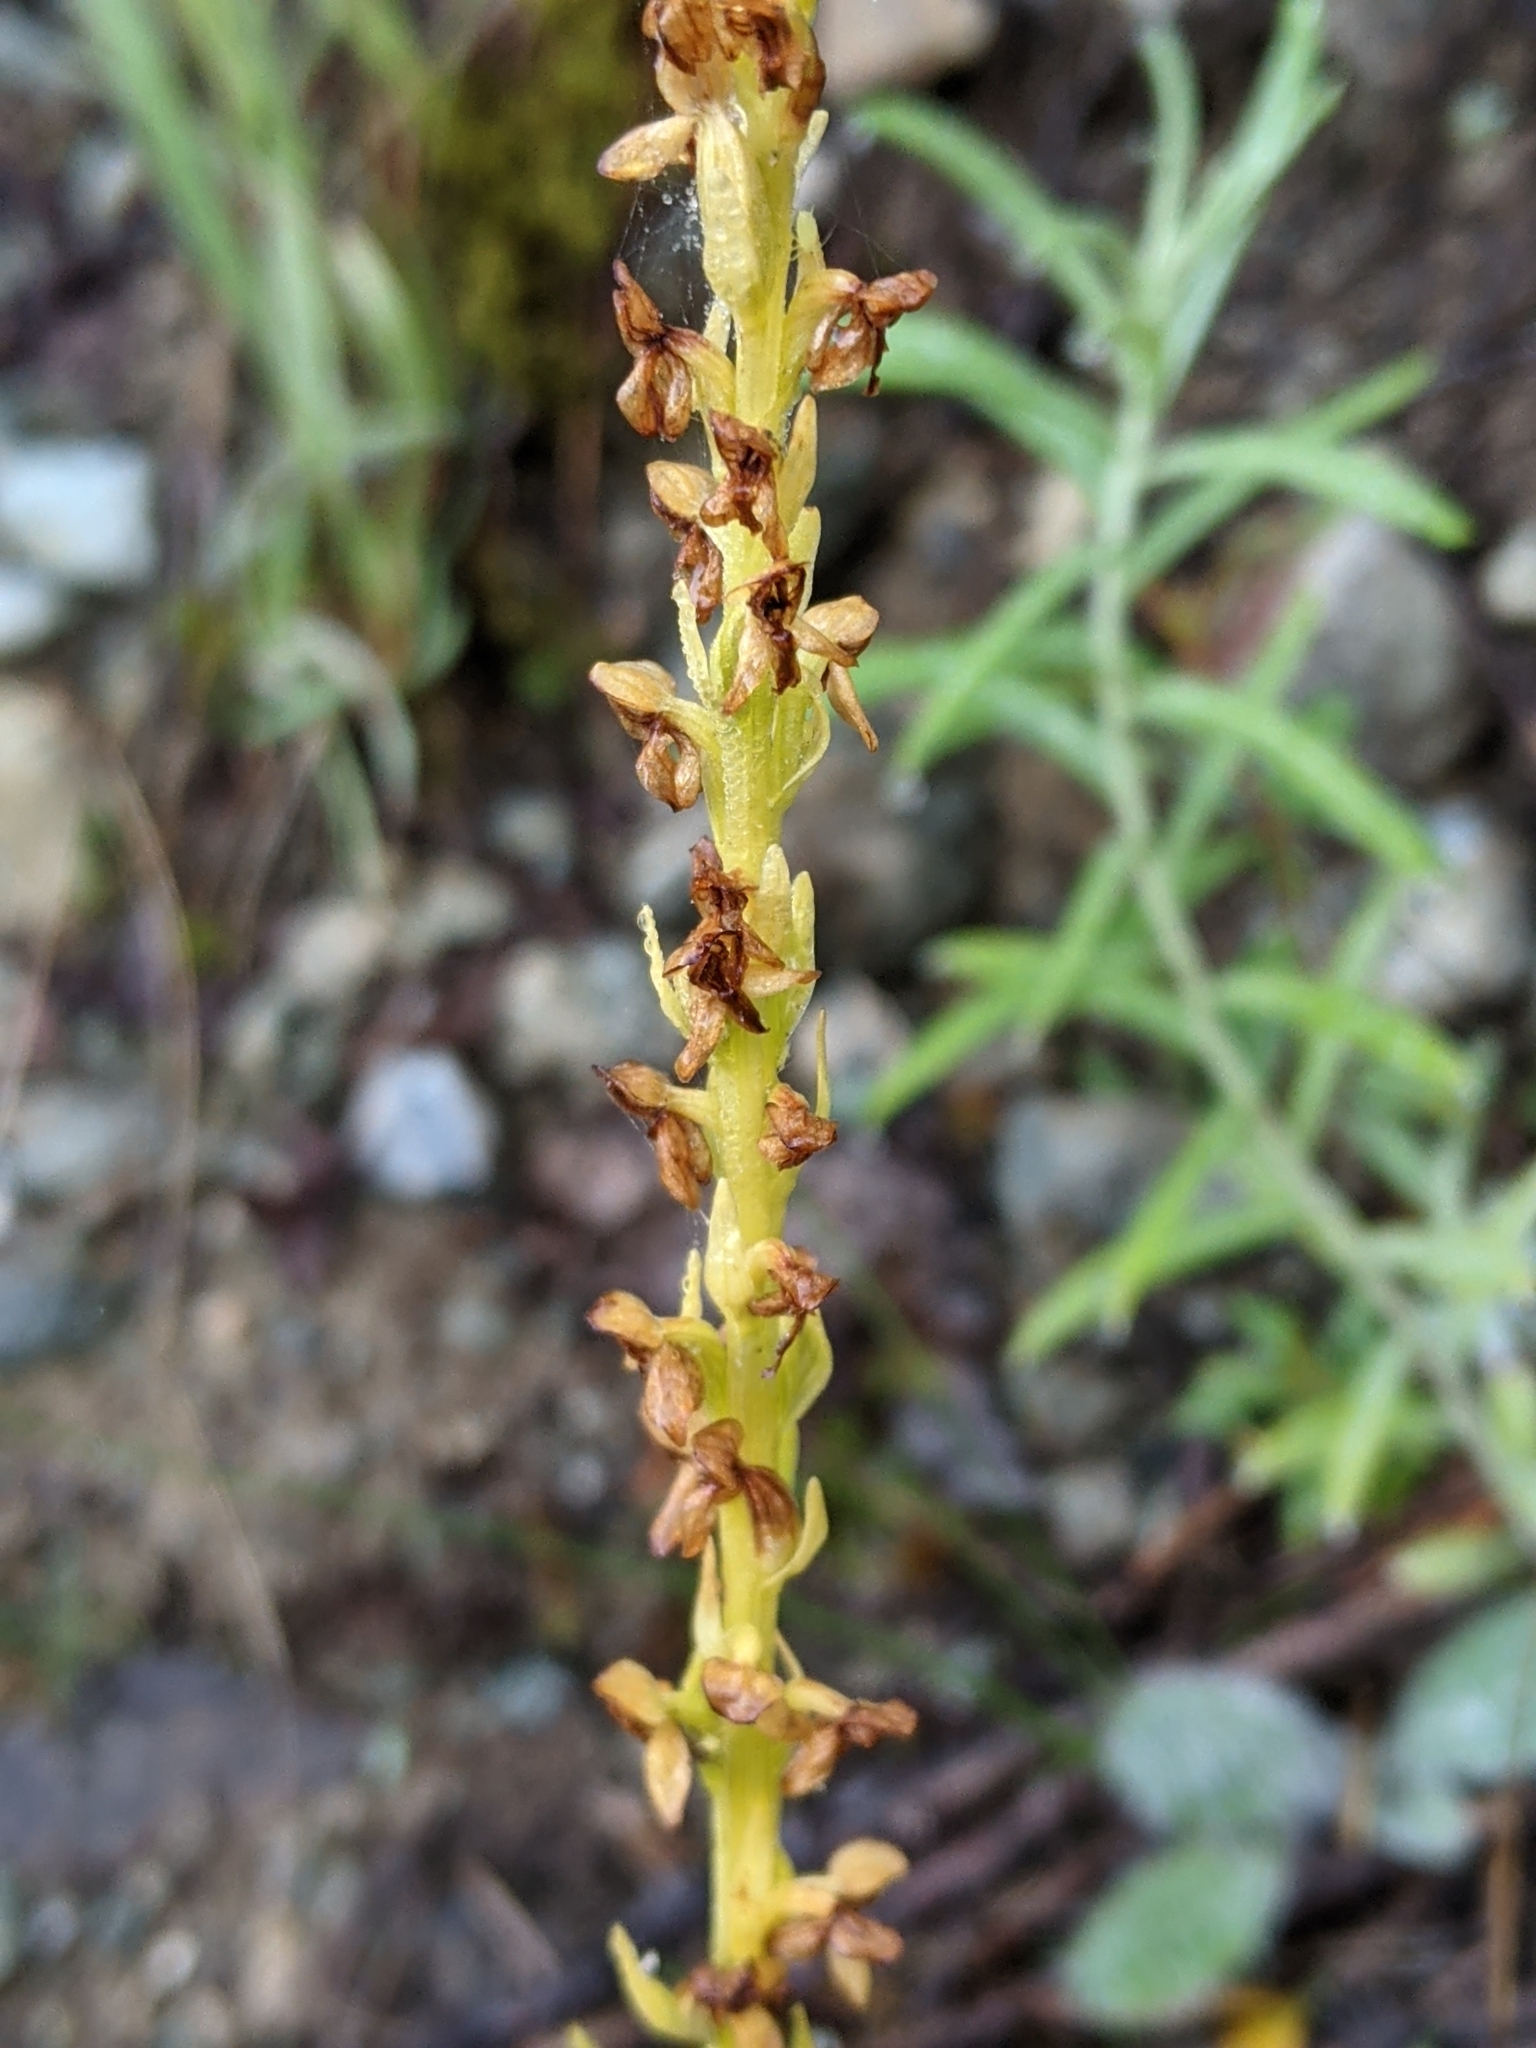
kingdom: Plantae
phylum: Tracheophyta
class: Liliopsida
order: Asparagales
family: Orchidaceae
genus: Platanthera
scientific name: Platanthera stricta
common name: Slender bog orchid
